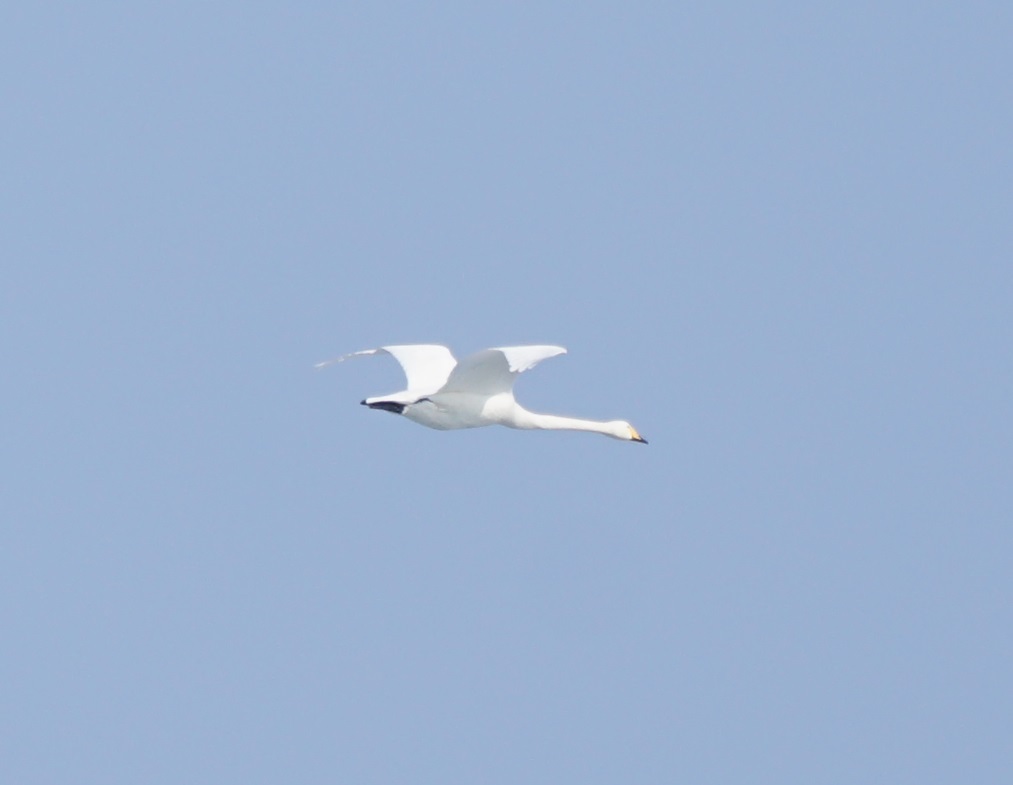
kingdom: Animalia
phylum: Chordata
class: Aves
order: Anseriformes
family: Anatidae
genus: Cygnus
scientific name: Cygnus cygnus
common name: Whooper swan
